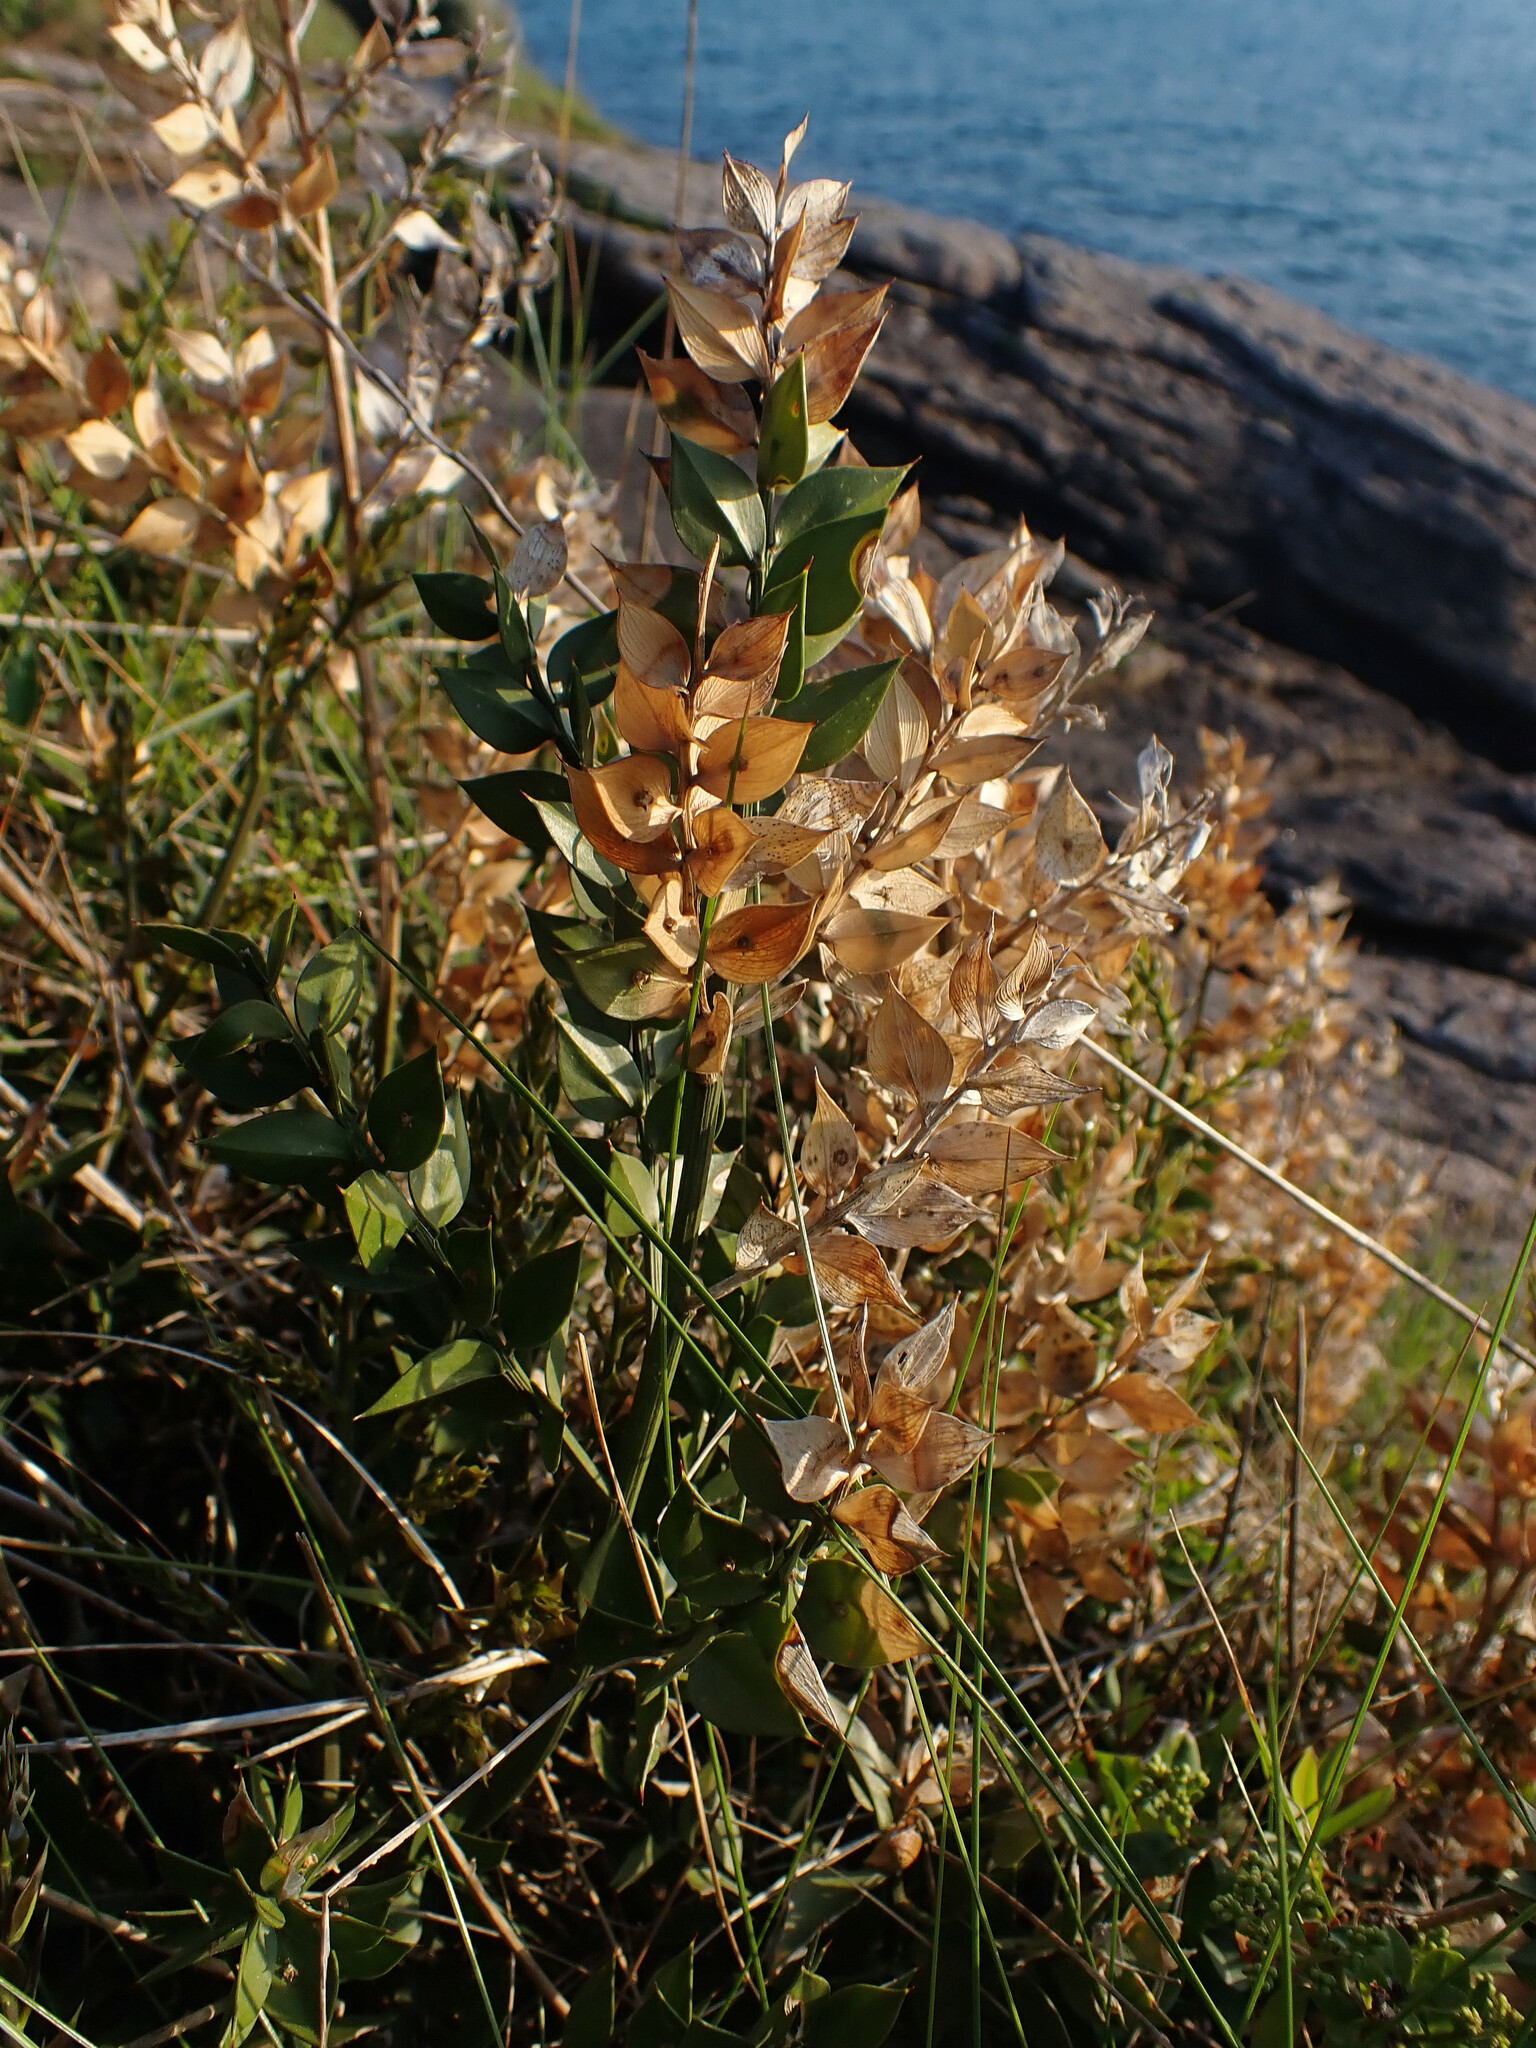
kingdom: Plantae
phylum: Tracheophyta
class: Liliopsida
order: Asparagales
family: Asparagaceae
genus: Ruscus
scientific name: Ruscus aculeatus
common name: Butcher's-broom
